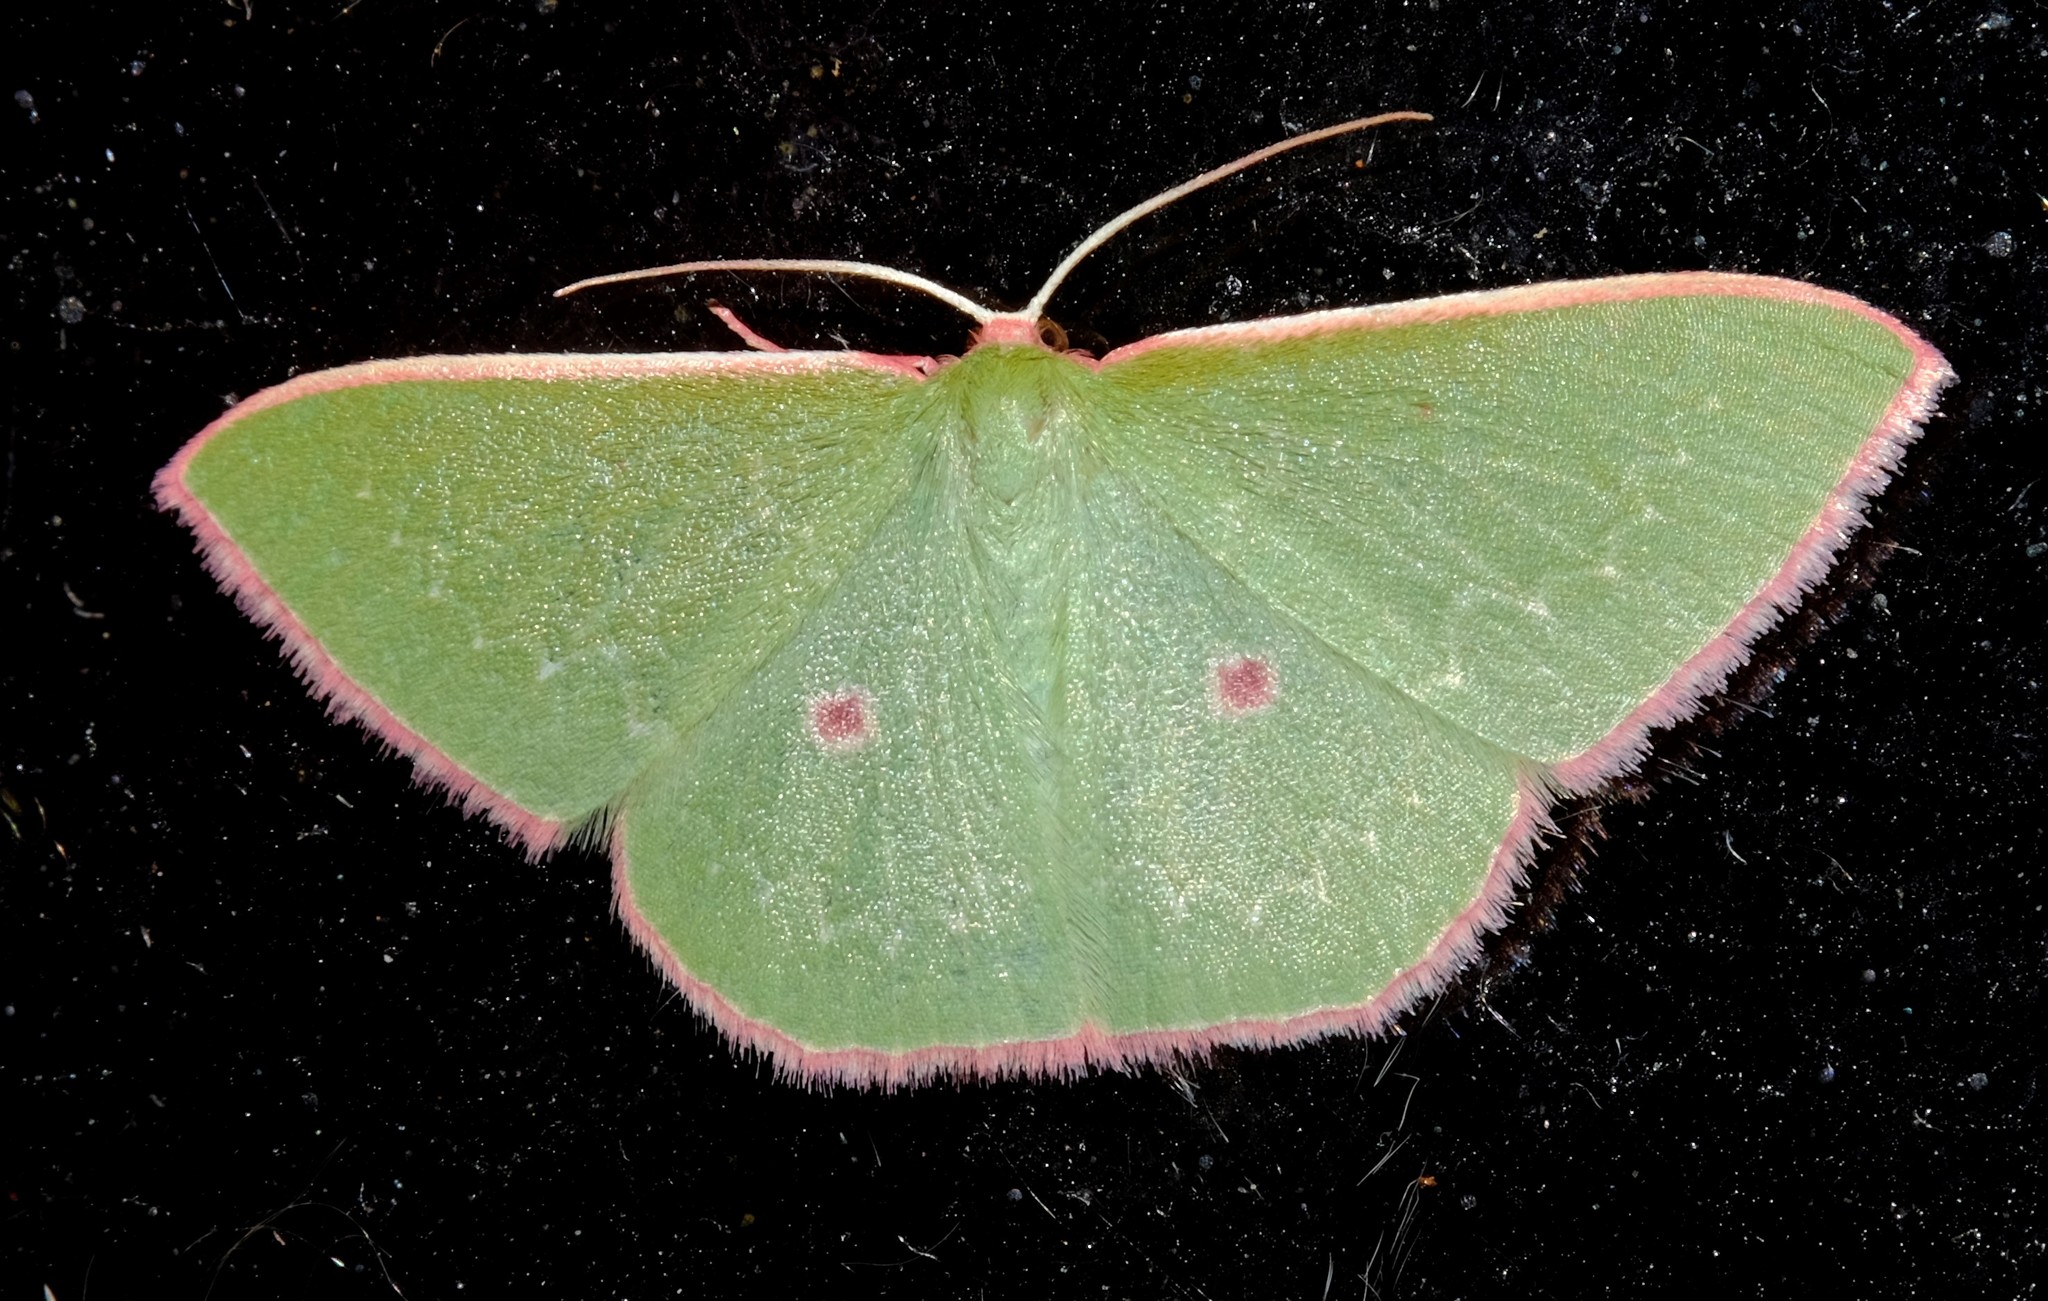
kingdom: Animalia
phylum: Arthropoda
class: Insecta
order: Lepidoptera
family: Geometridae
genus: Chlorocoma
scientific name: Chlorocoma cadmaria
